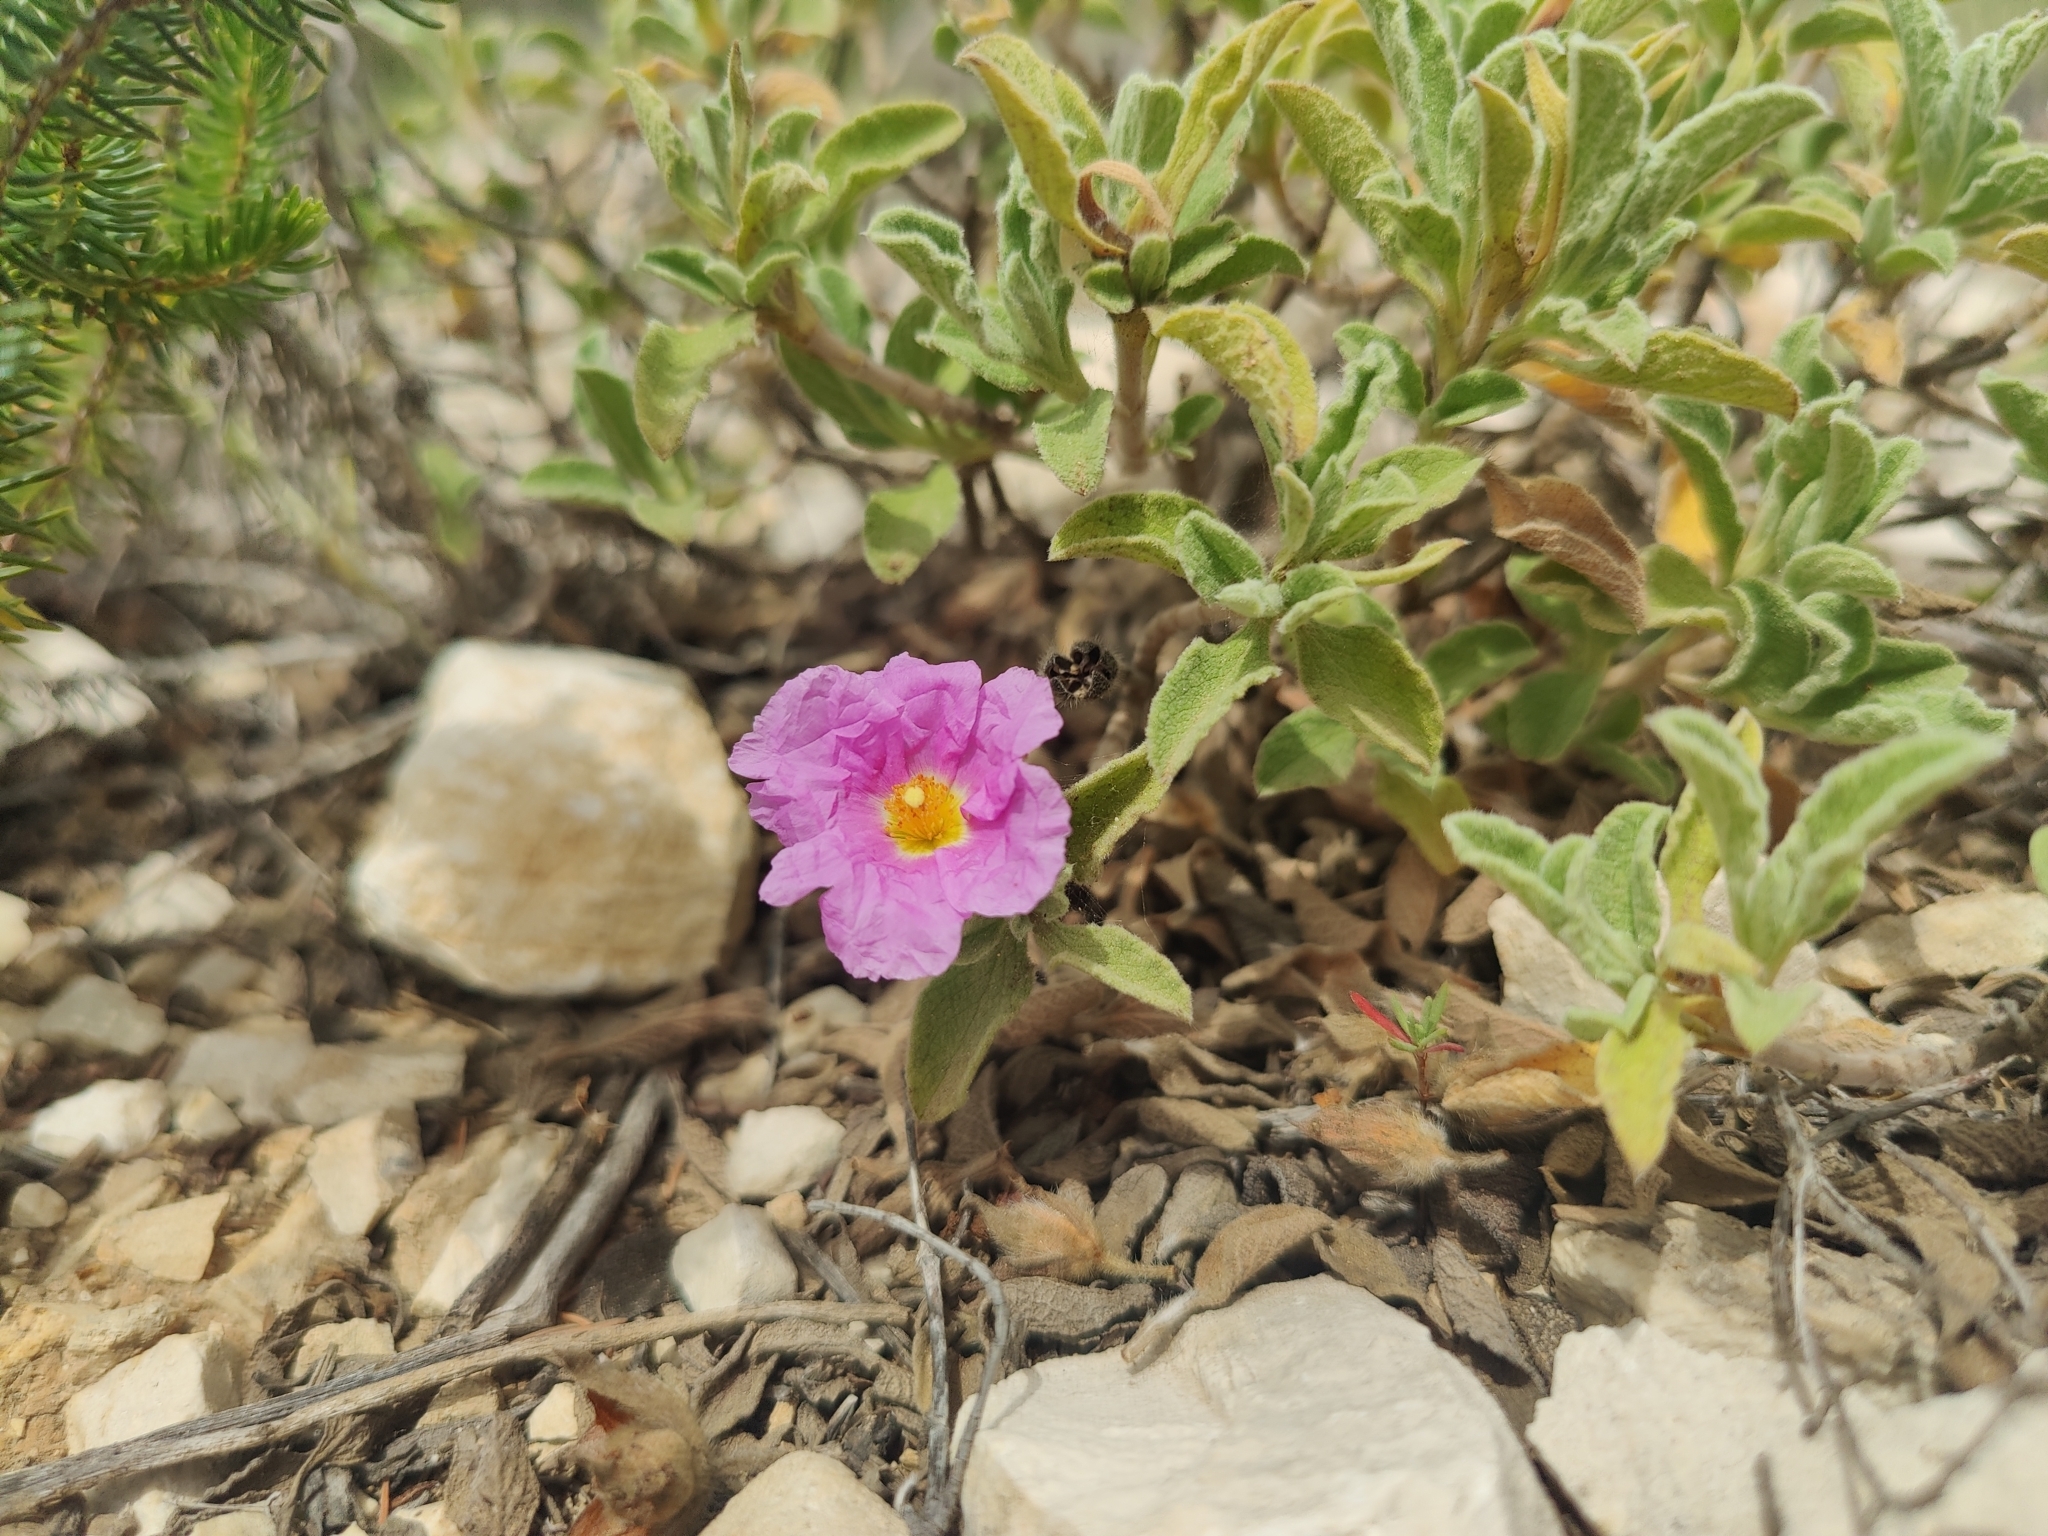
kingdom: Plantae
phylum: Tracheophyta
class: Magnoliopsida
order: Malvales
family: Cistaceae
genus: Cistus
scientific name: Cistus creticus
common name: Cretan rockrose
